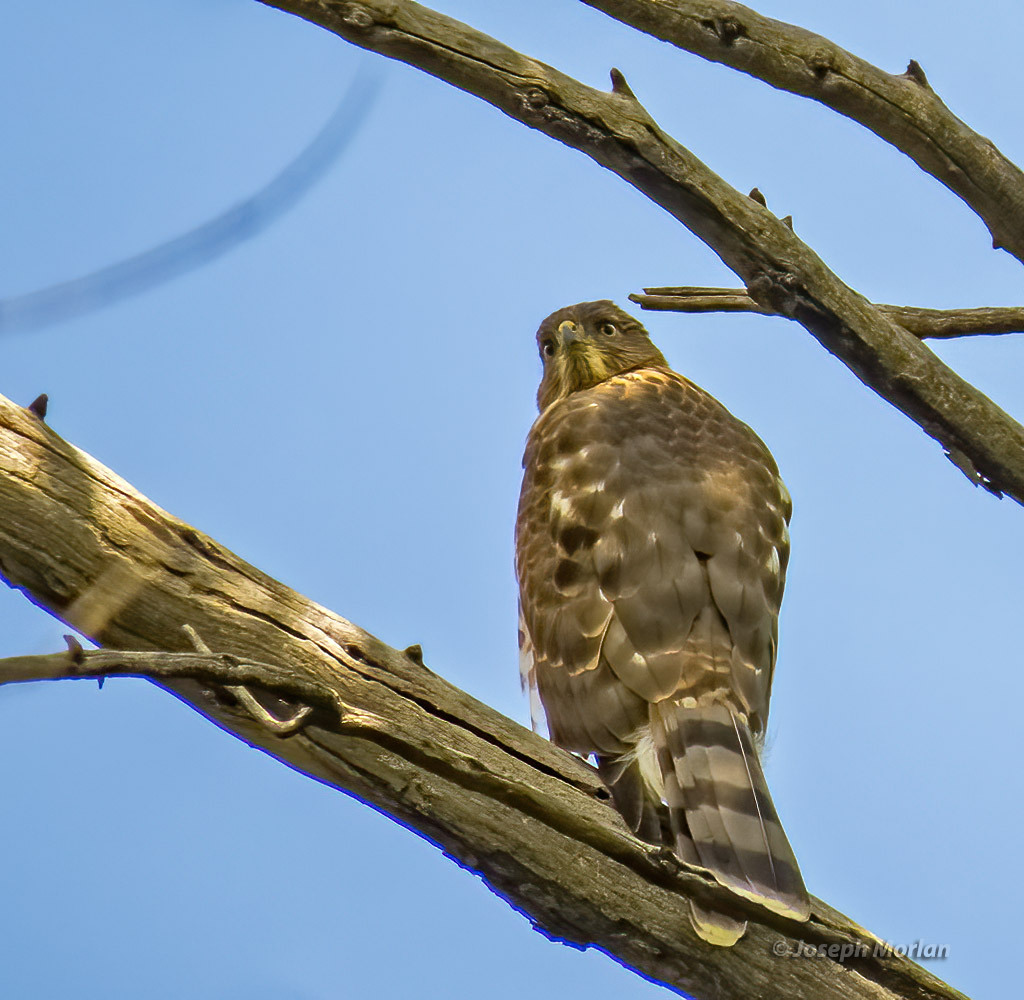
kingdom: Animalia
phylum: Chordata
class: Aves
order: Accipitriformes
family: Accipitridae
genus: Accipiter
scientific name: Accipiter cooperii
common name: Cooper's hawk
